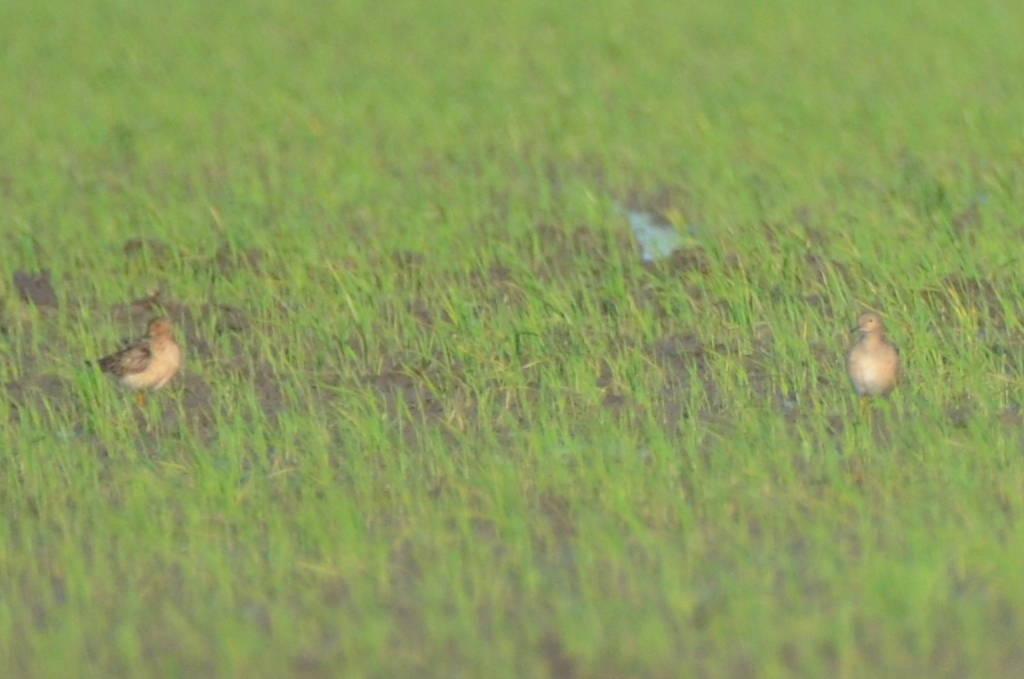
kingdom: Animalia
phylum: Chordata
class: Aves
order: Charadriiformes
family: Scolopacidae
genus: Calidris
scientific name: Calidris subruficollis
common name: Buff-breasted sandpiper
